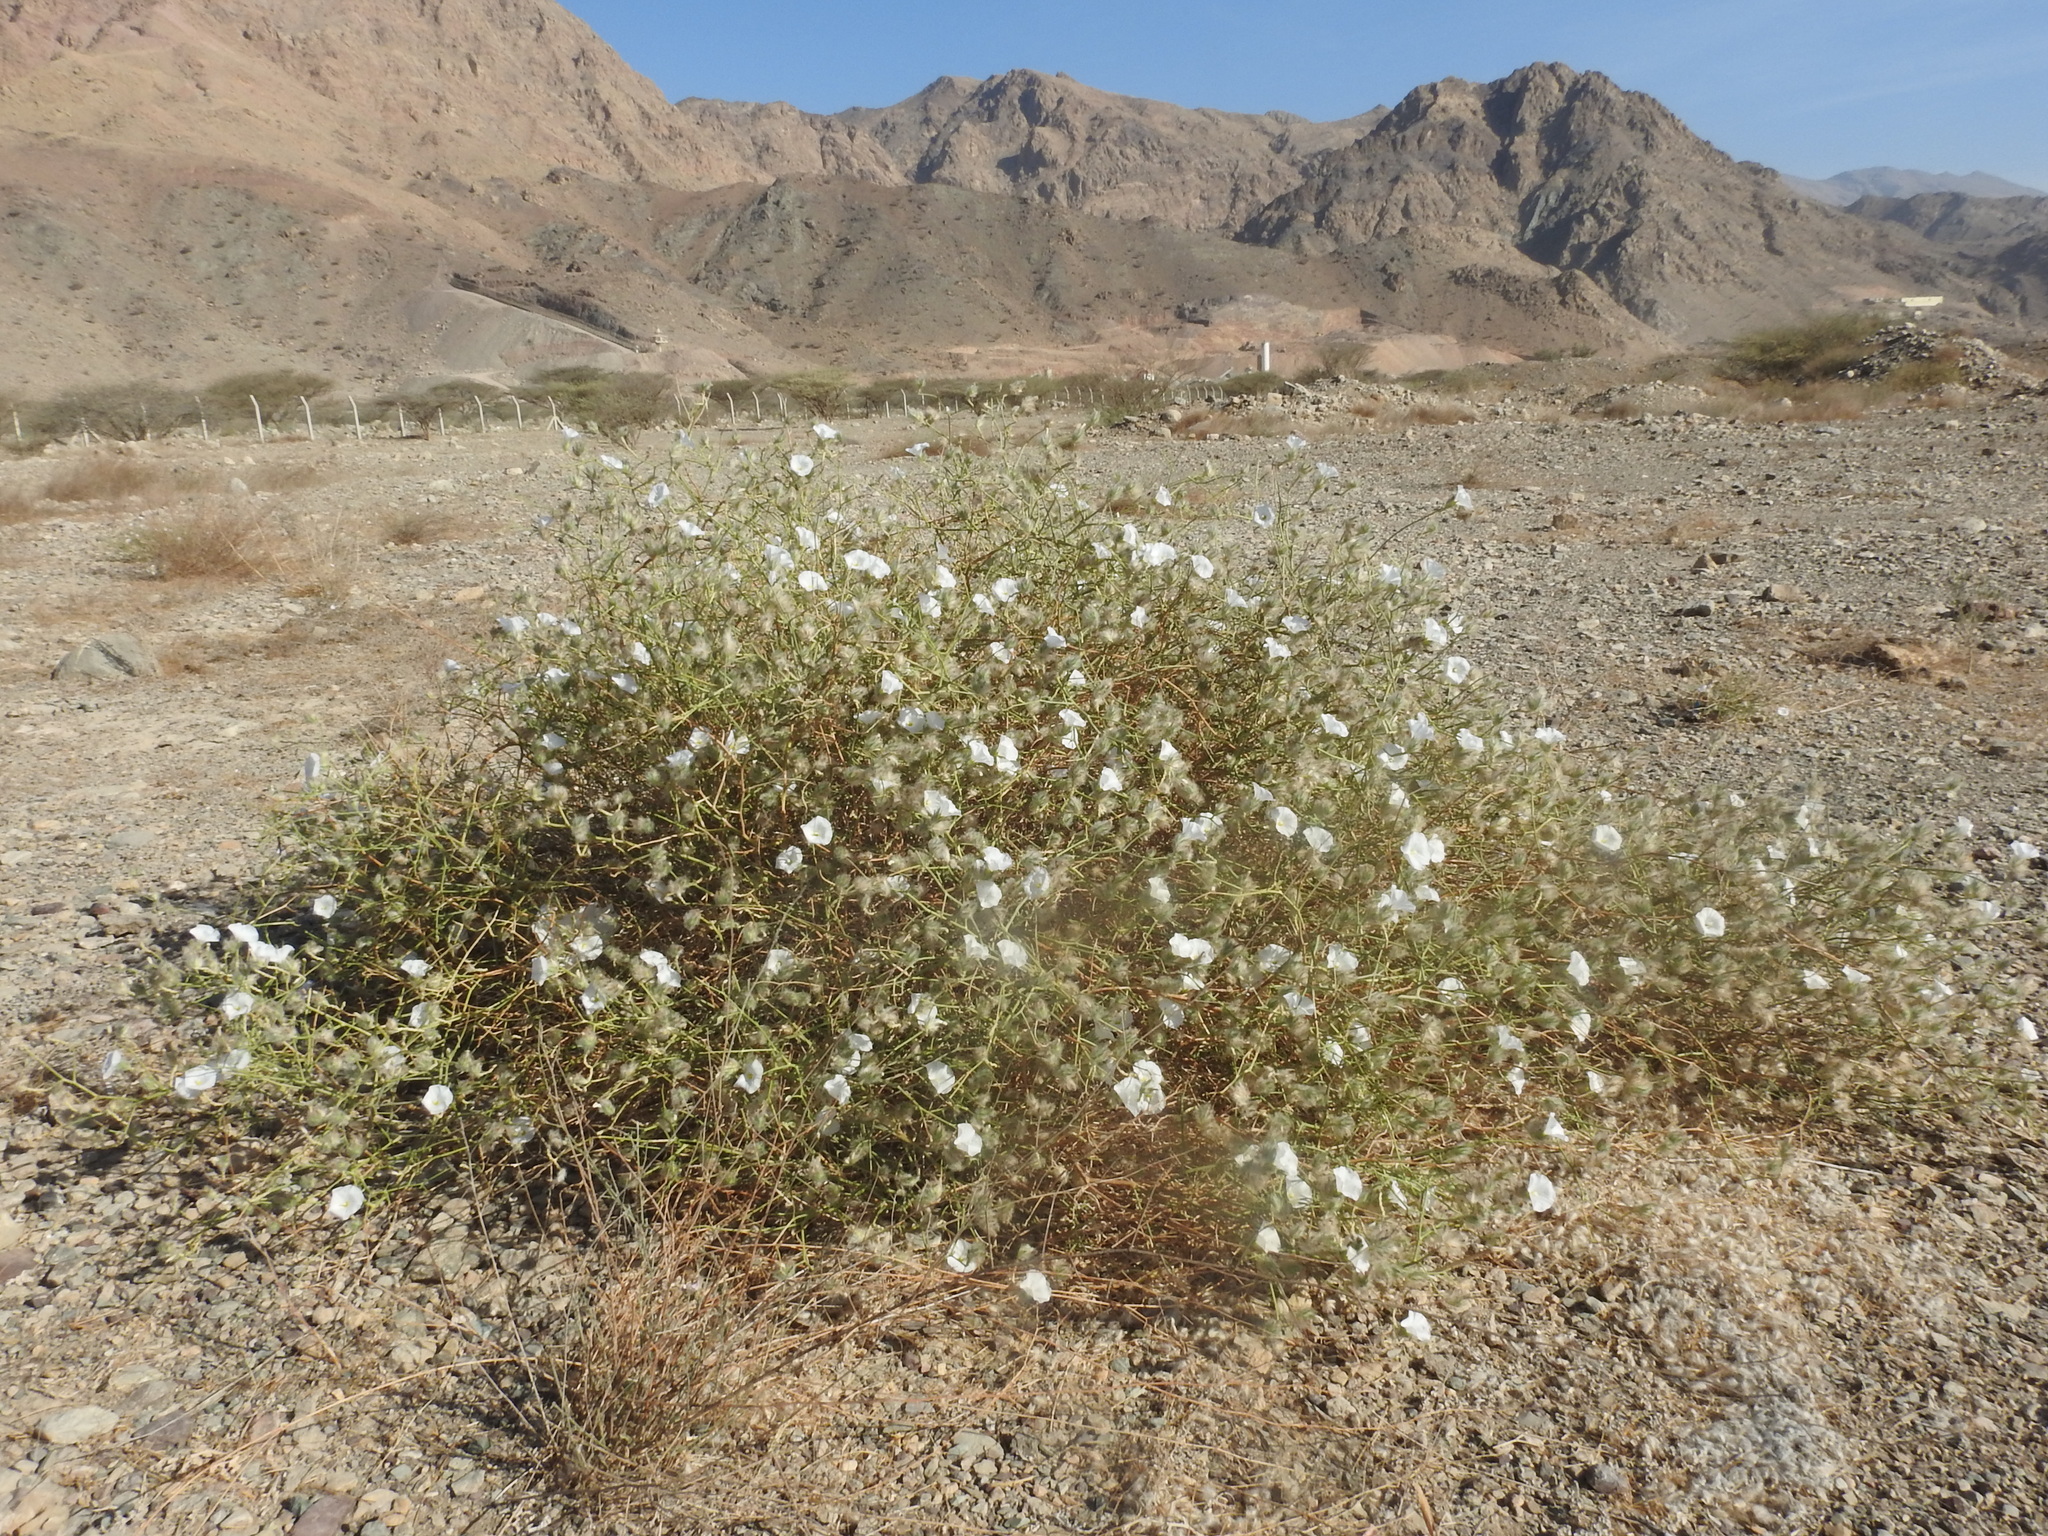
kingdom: Plantae
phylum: Tracheophyta
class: Magnoliopsida
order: Solanales
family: Convolvulaceae
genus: Convolvulus
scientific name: Convolvulus virgatus
